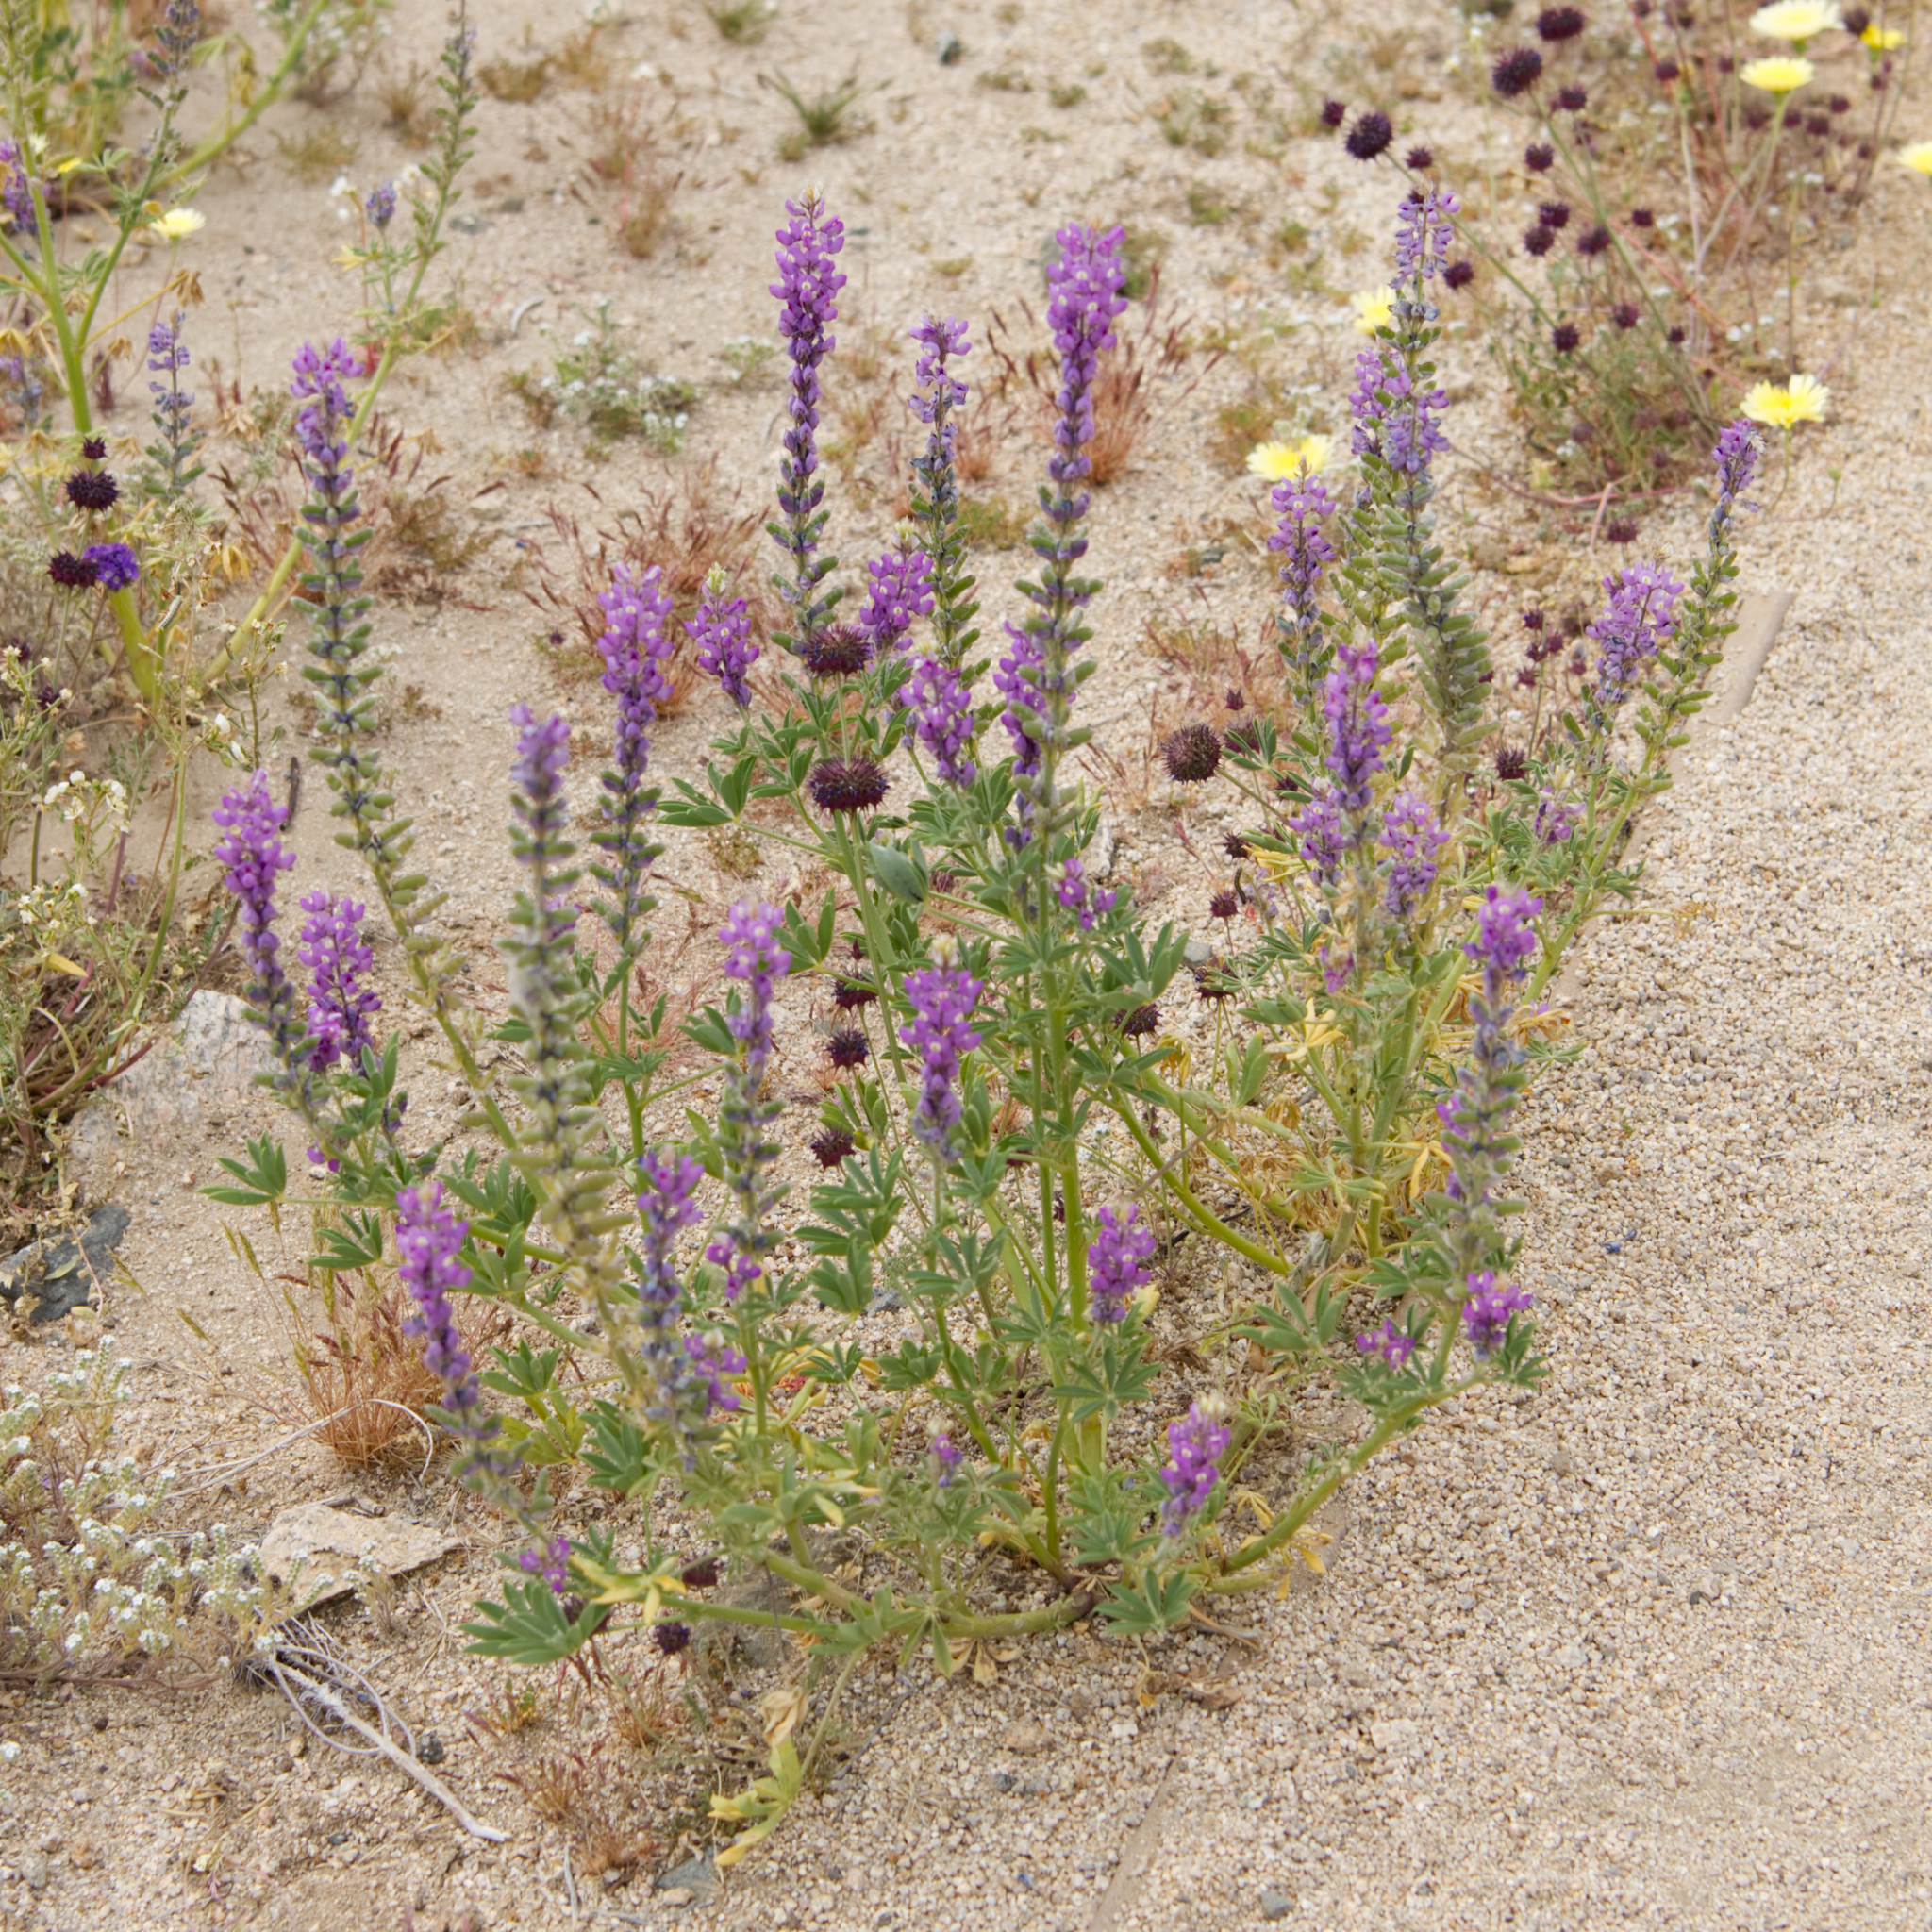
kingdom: Plantae
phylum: Tracheophyta
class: Magnoliopsida
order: Fabales
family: Fabaceae
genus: Lupinus
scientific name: Lupinus arizonicus
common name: Arizona lupine
